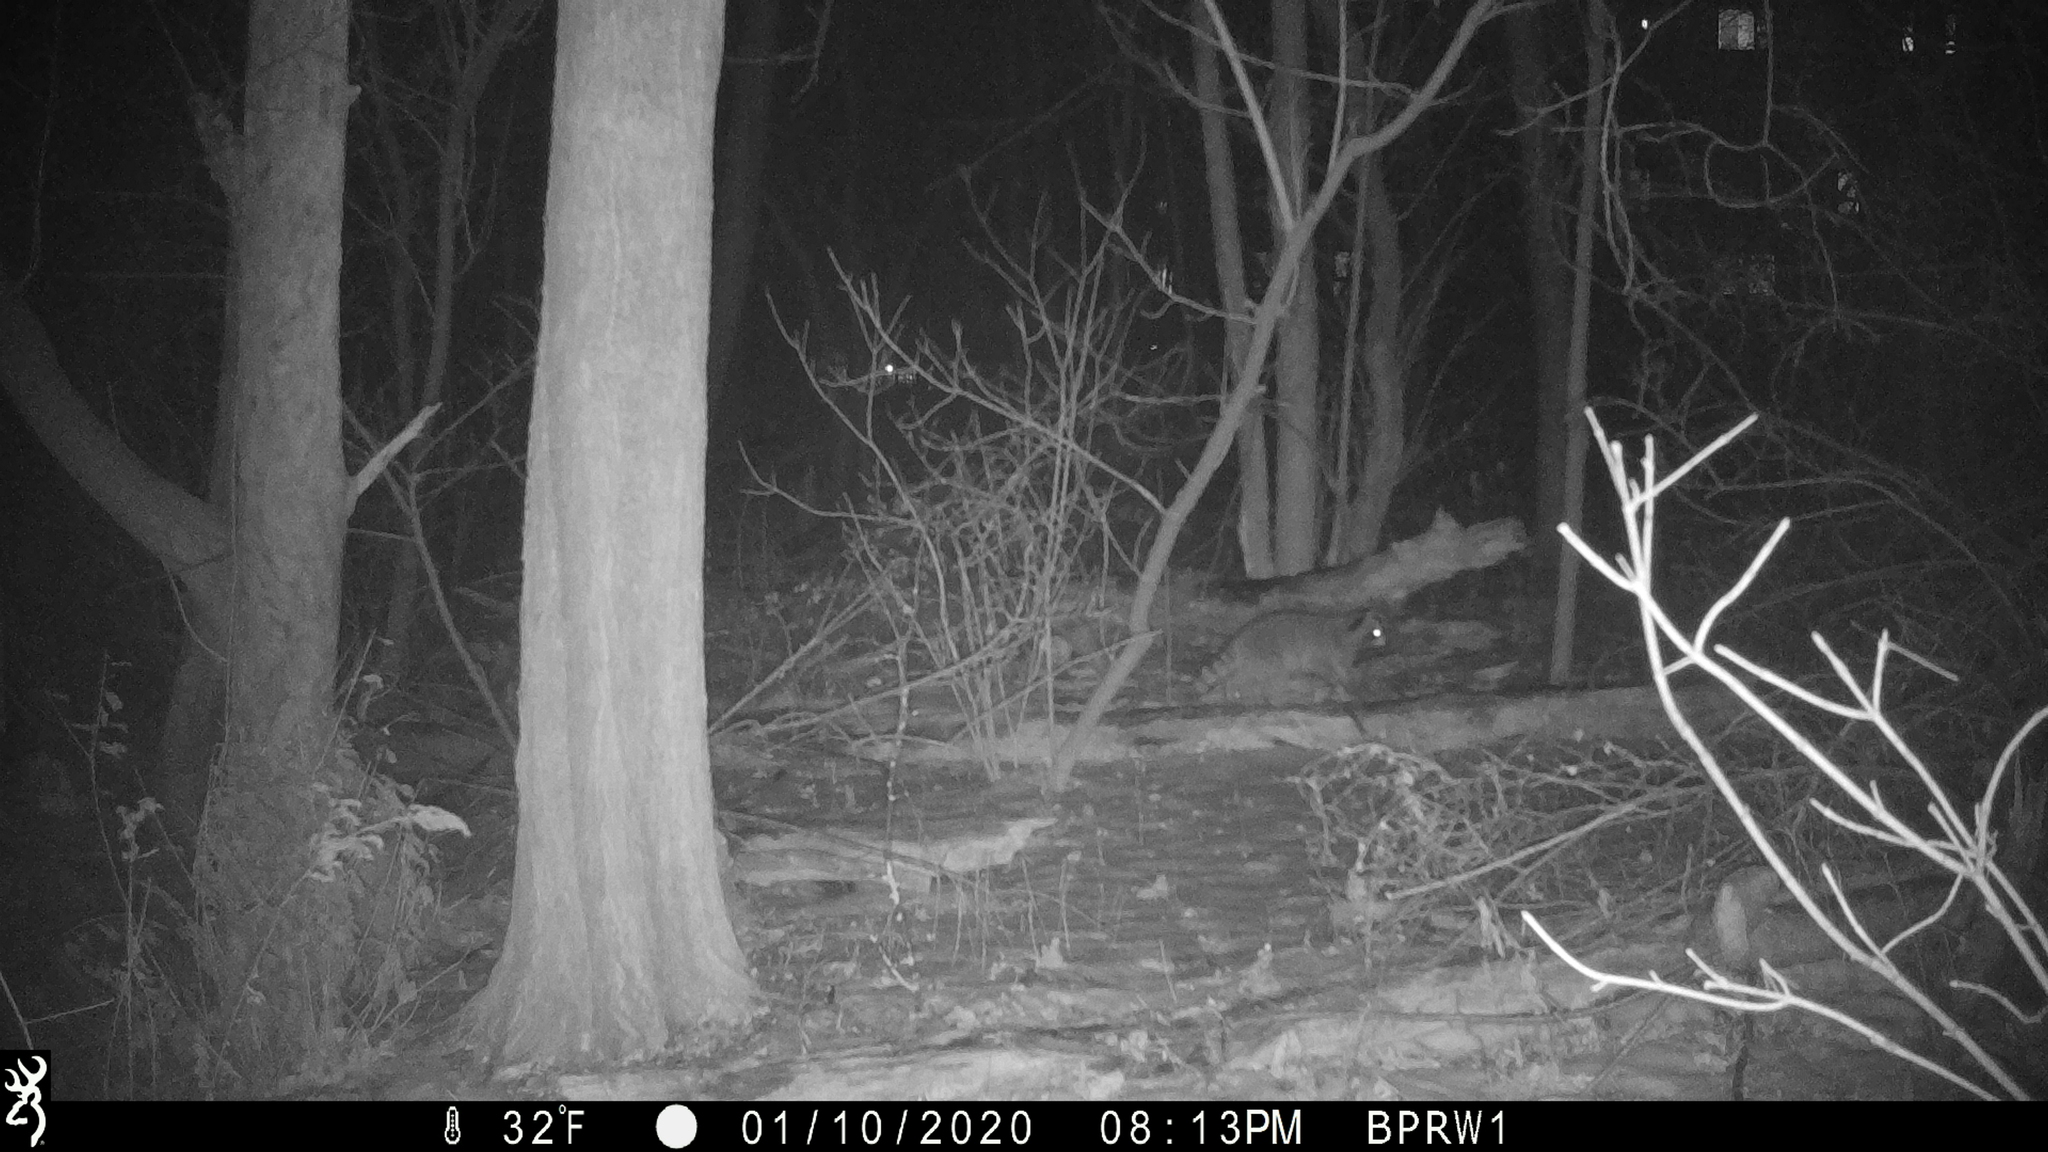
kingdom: Animalia
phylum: Chordata
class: Mammalia
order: Carnivora
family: Procyonidae
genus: Procyon
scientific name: Procyon lotor
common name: Raccoon
